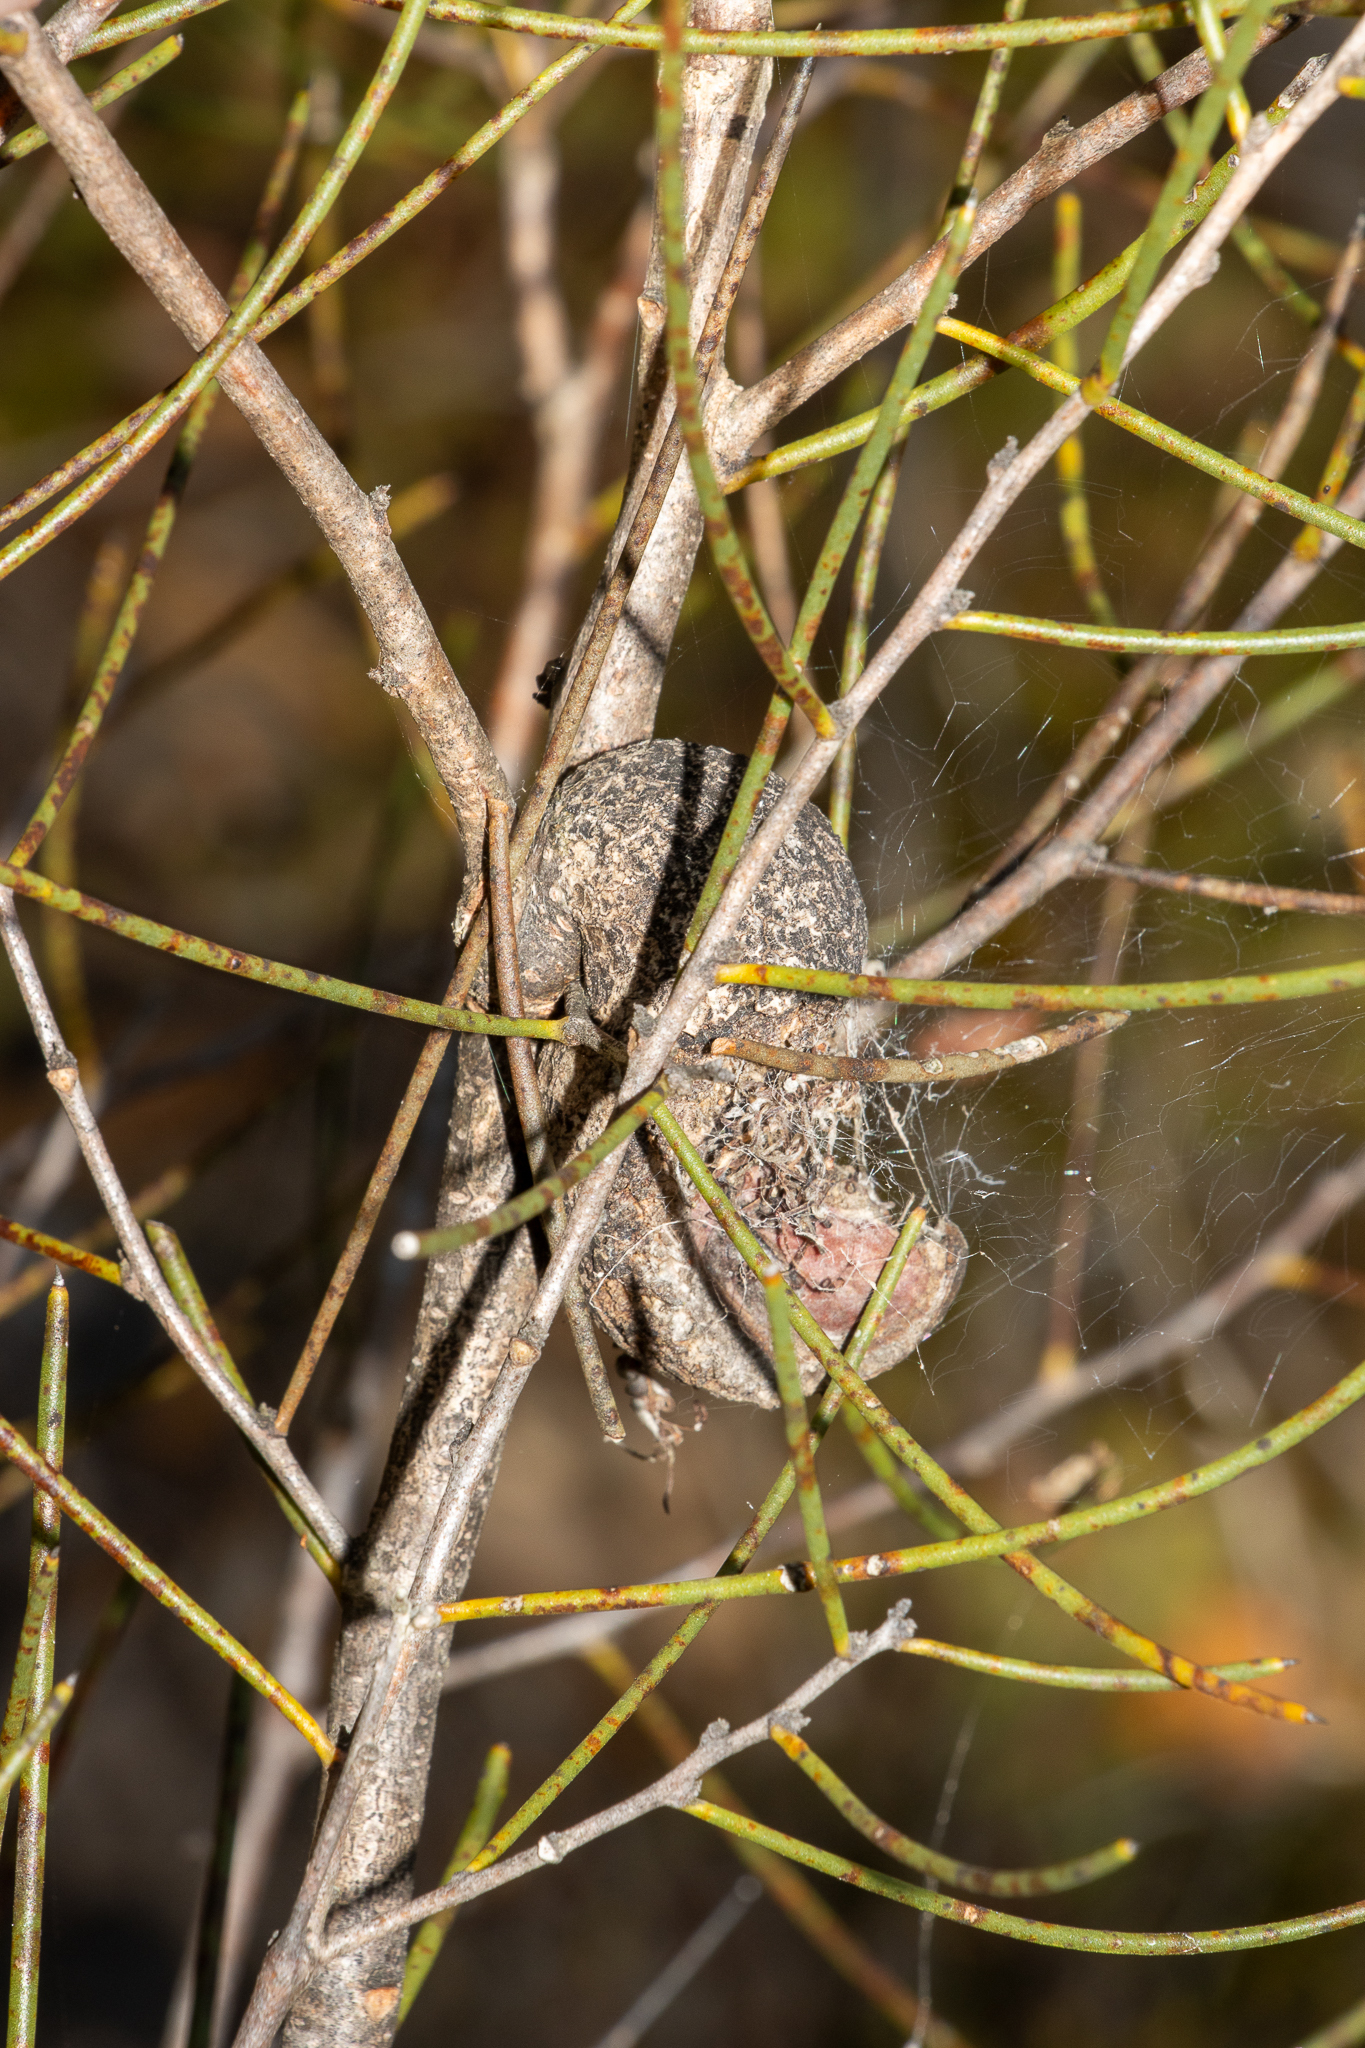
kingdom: Plantae
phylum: Tracheophyta
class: Magnoliopsida
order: Proteales
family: Proteaceae
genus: Hakea
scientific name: Hakea rostrata
